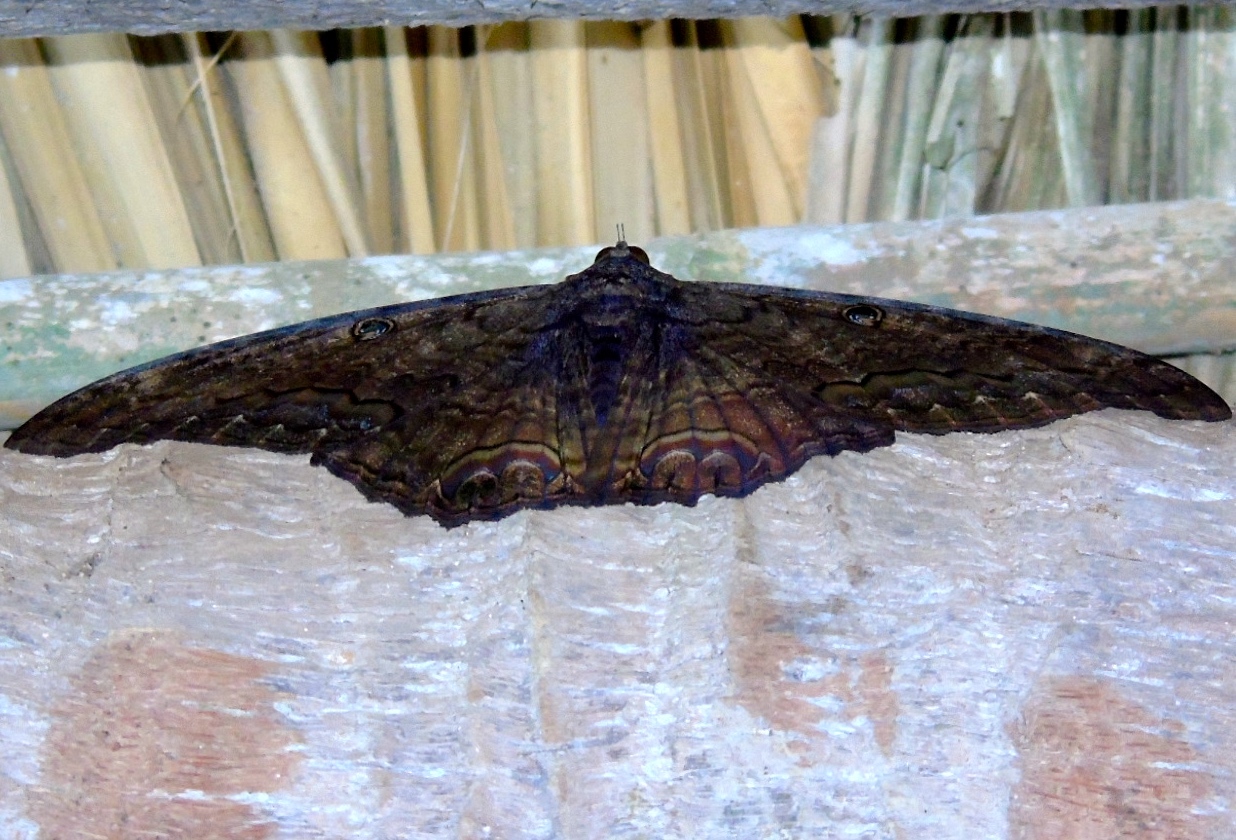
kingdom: Animalia
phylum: Arthropoda
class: Insecta
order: Lepidoptera
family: Erebidae
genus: Ascalapha
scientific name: Ascalapha odorata
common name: Black witch
